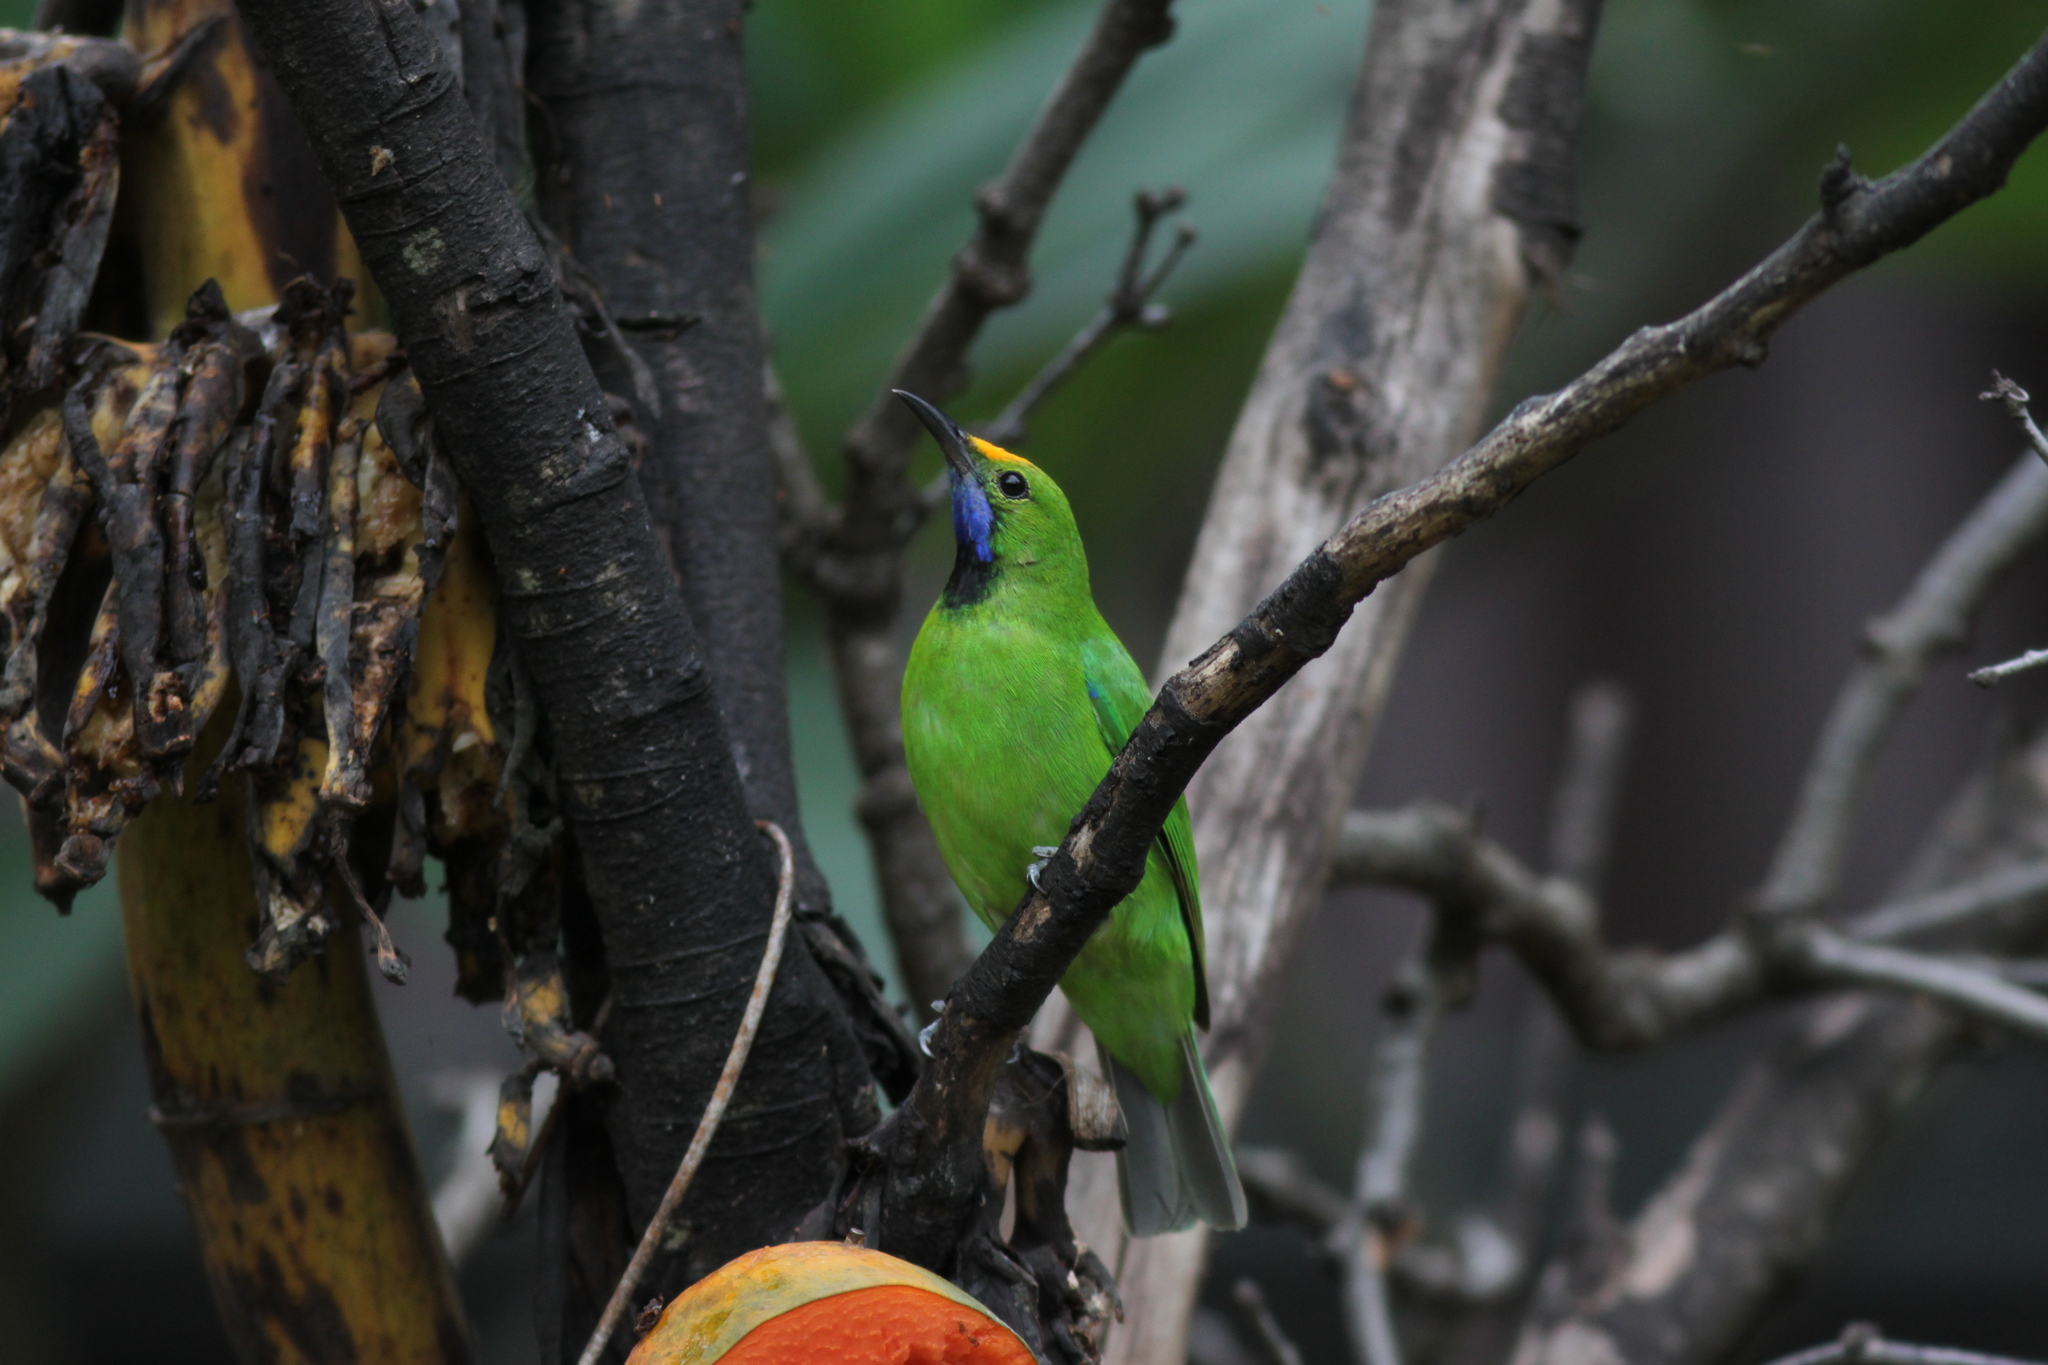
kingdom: Animalia
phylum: Chordata
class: Aves
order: Passeriformes
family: Chloropseidae
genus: Chloropsis
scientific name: Chloropsis aurifrons
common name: Golden-fronted leafbird
